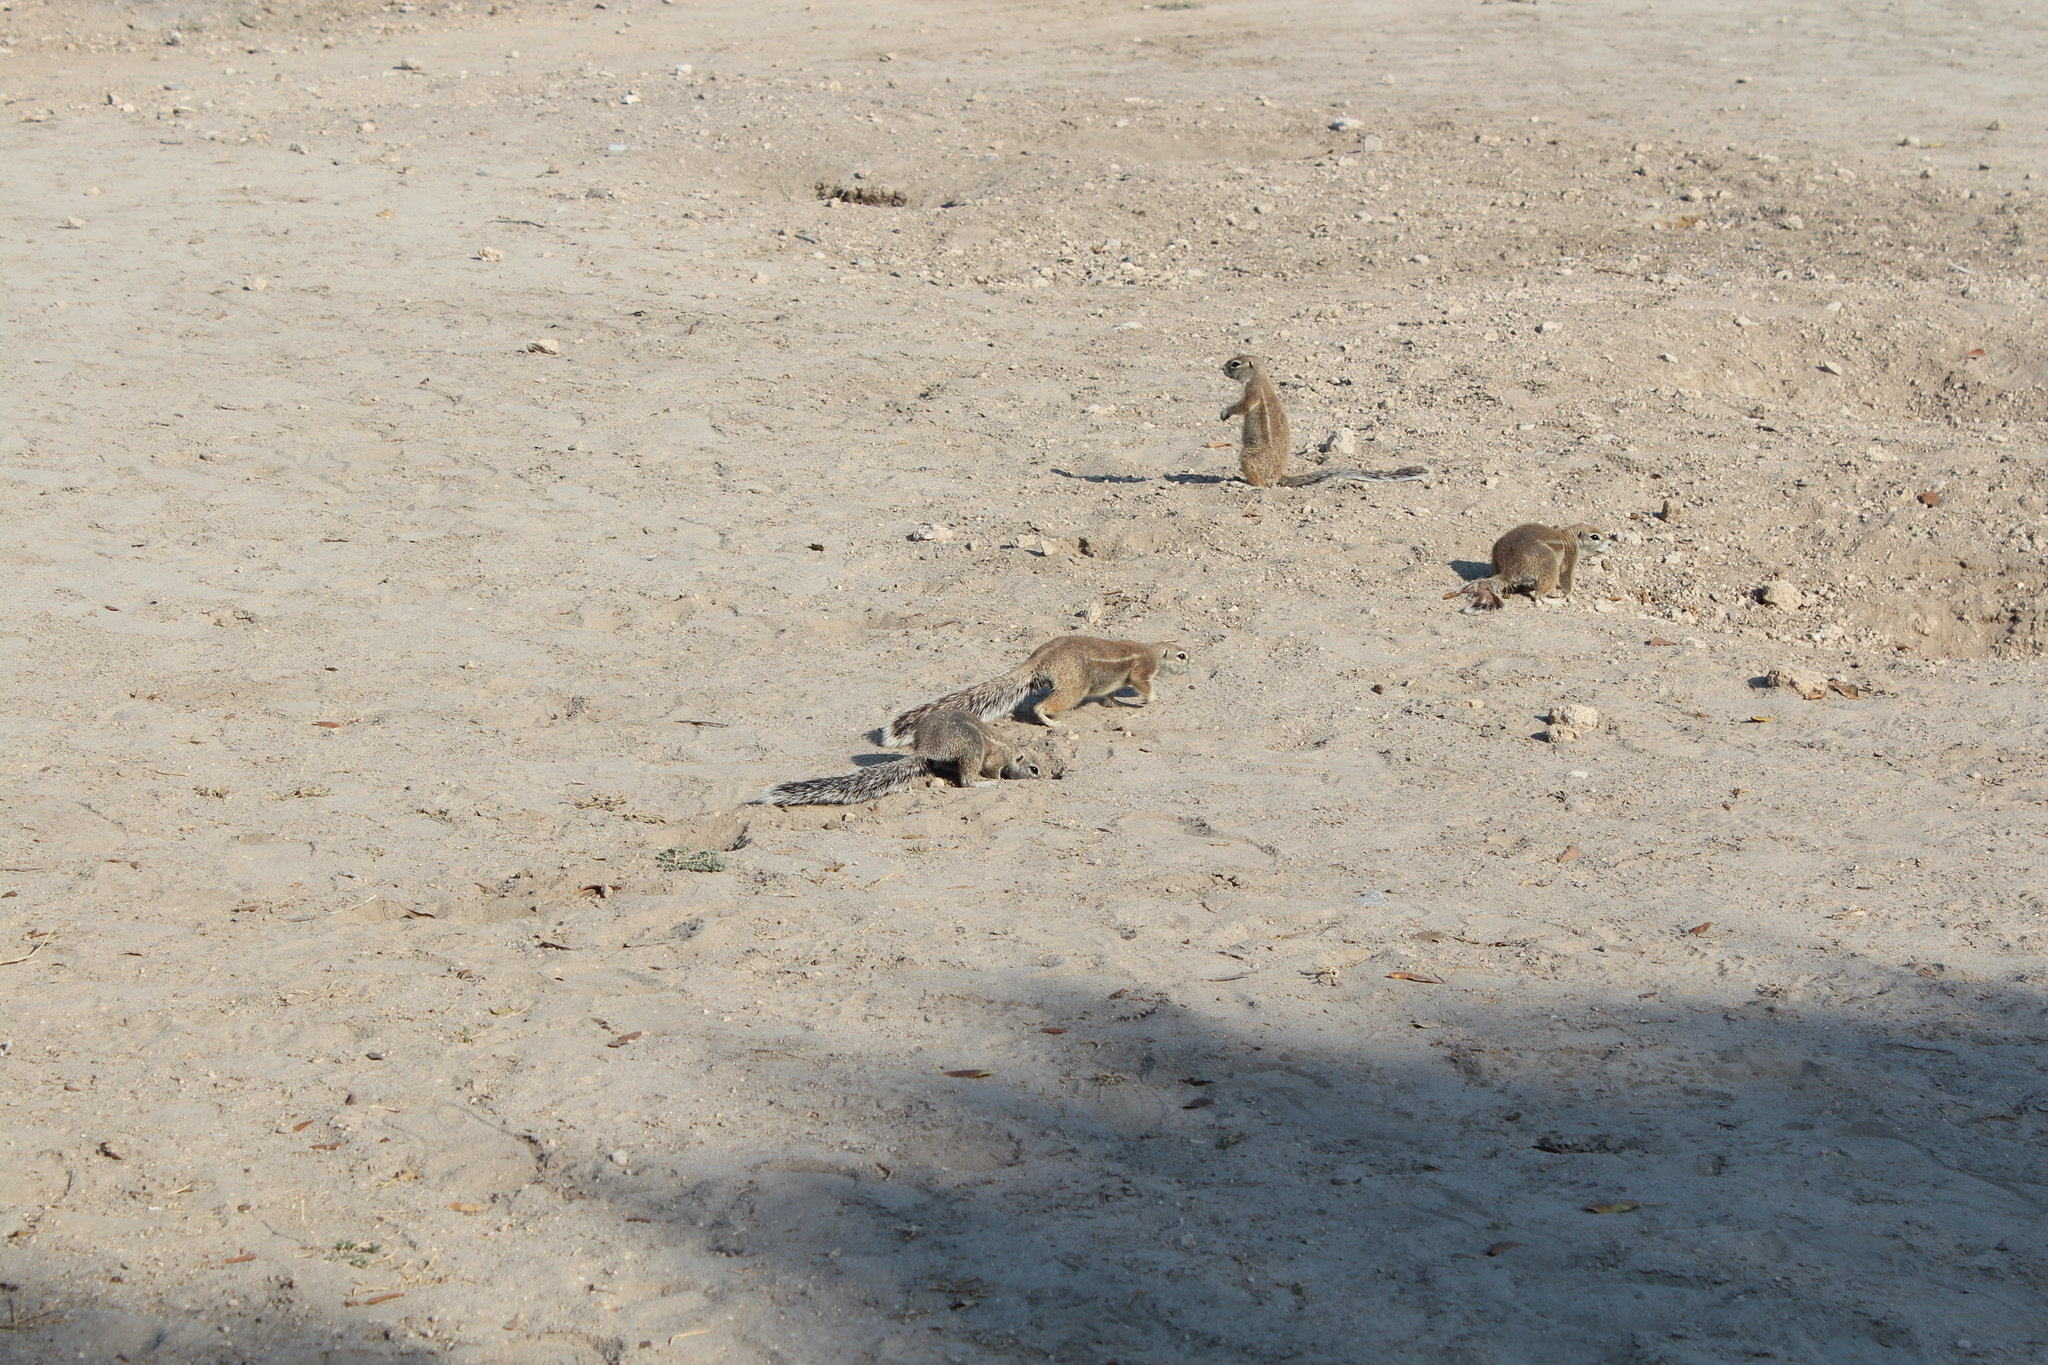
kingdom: Animalia
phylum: Chordata
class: Mammalia
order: Rodentia
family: Sciuridae
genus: Xerus
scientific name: Xerus inauris
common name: South african ground squirrel
